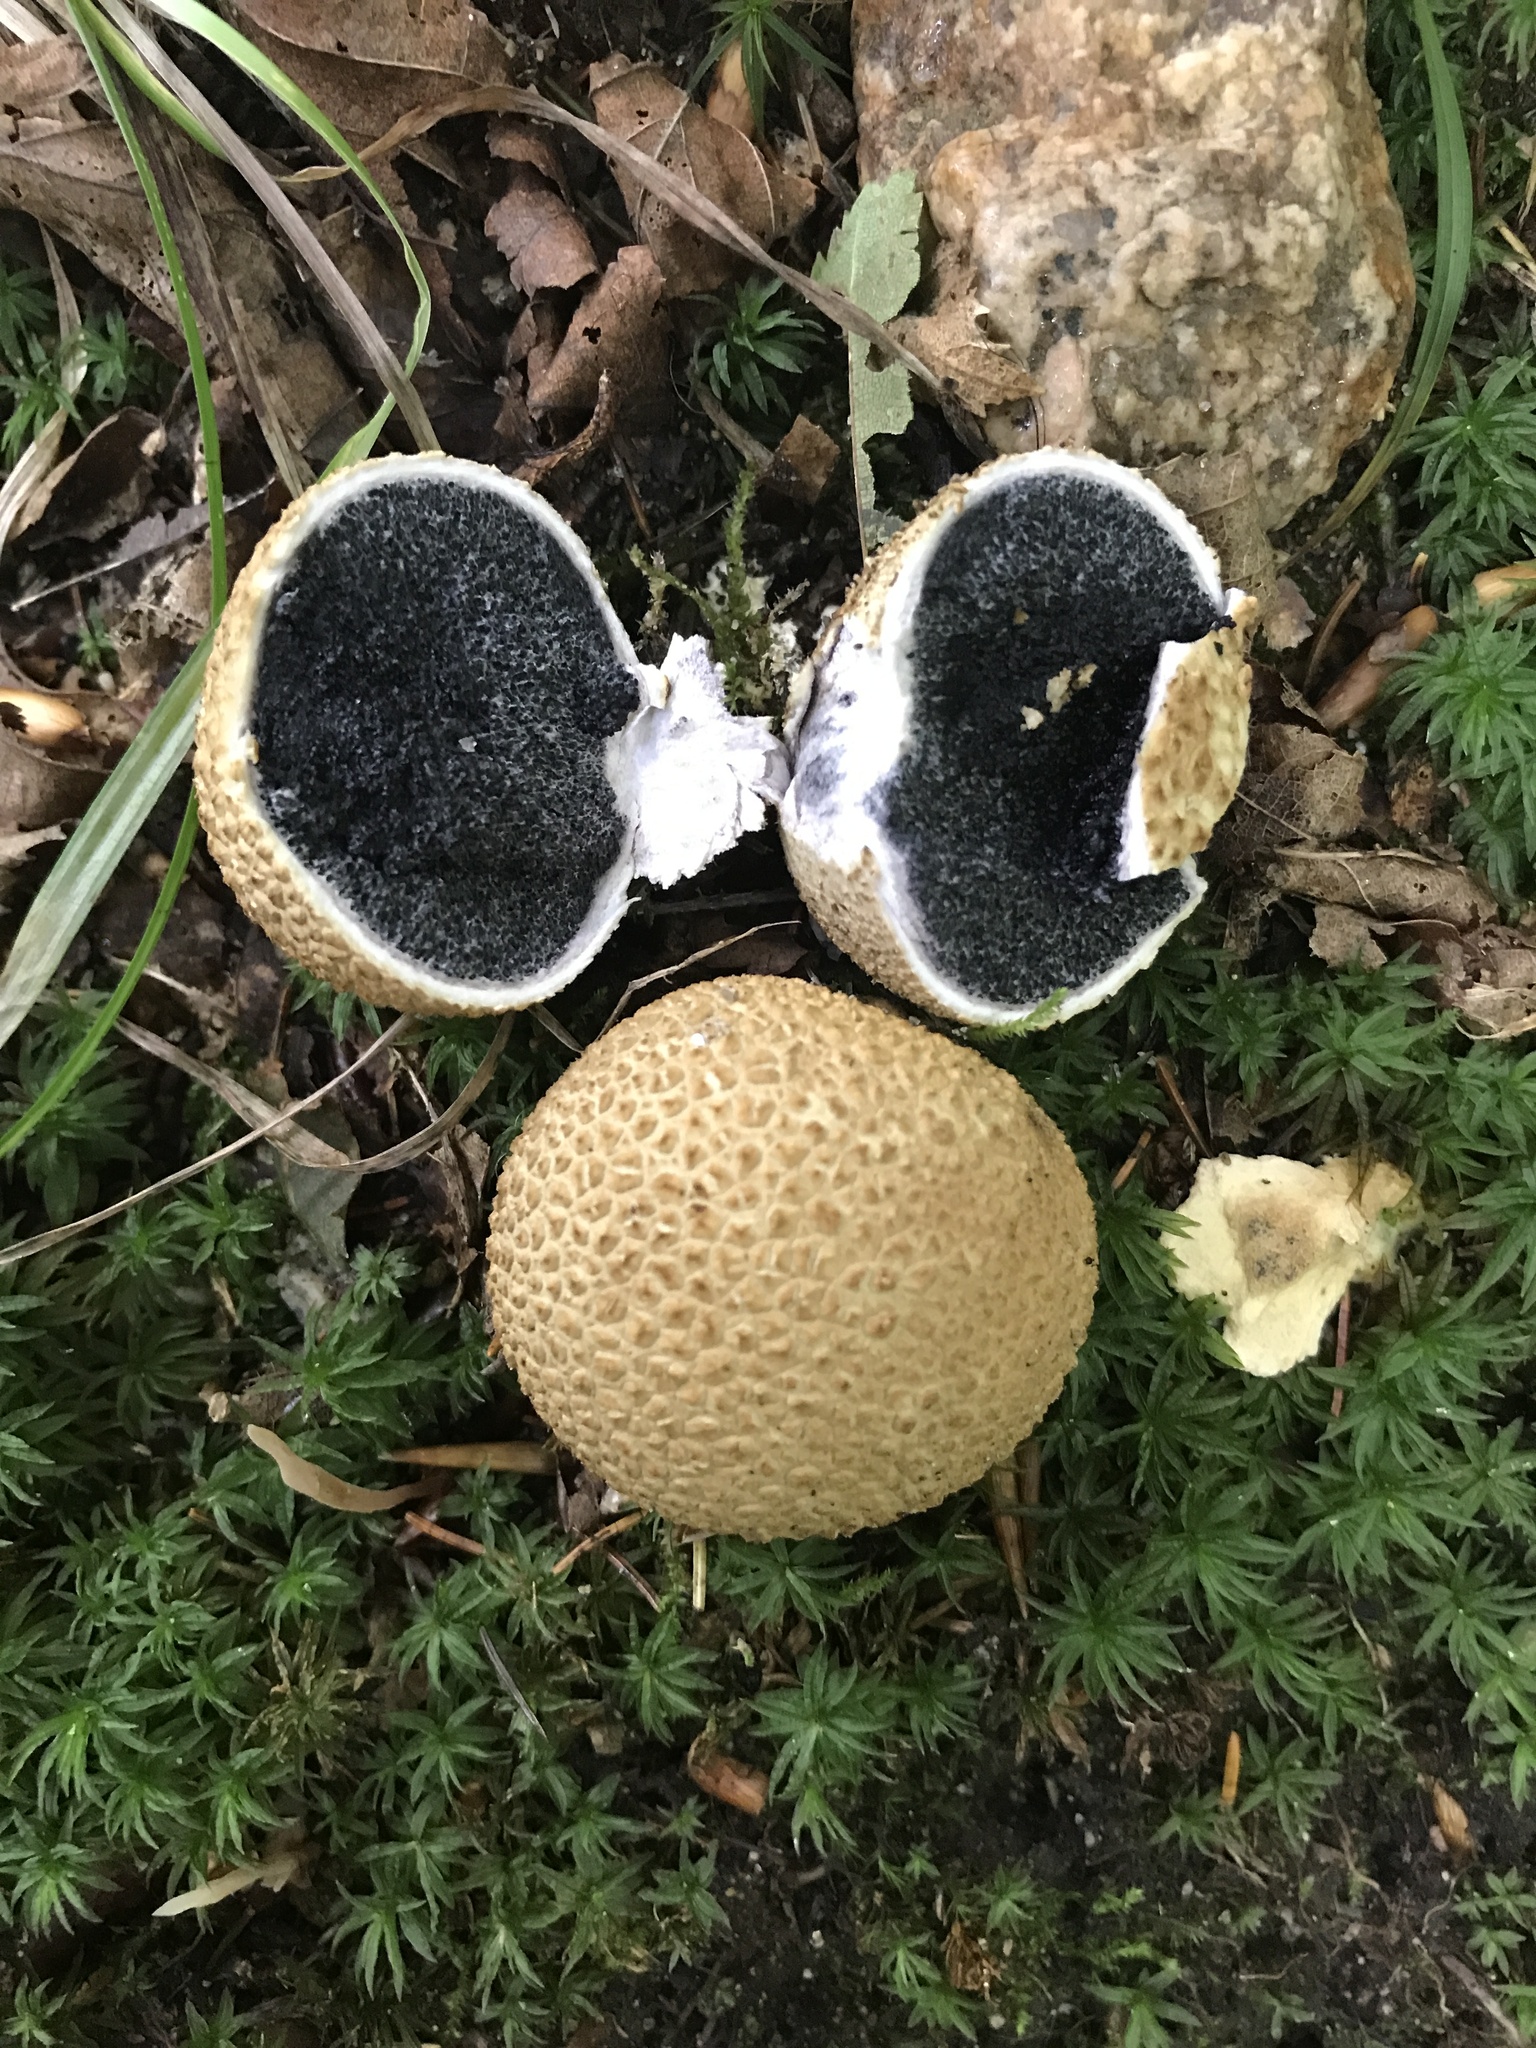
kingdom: Fungi
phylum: Basidiomycota
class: Agaricomycetes
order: Boletales
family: Sclerodermataceae
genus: Scleroderma
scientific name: Scleroderma citrinum
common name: Common earthball
